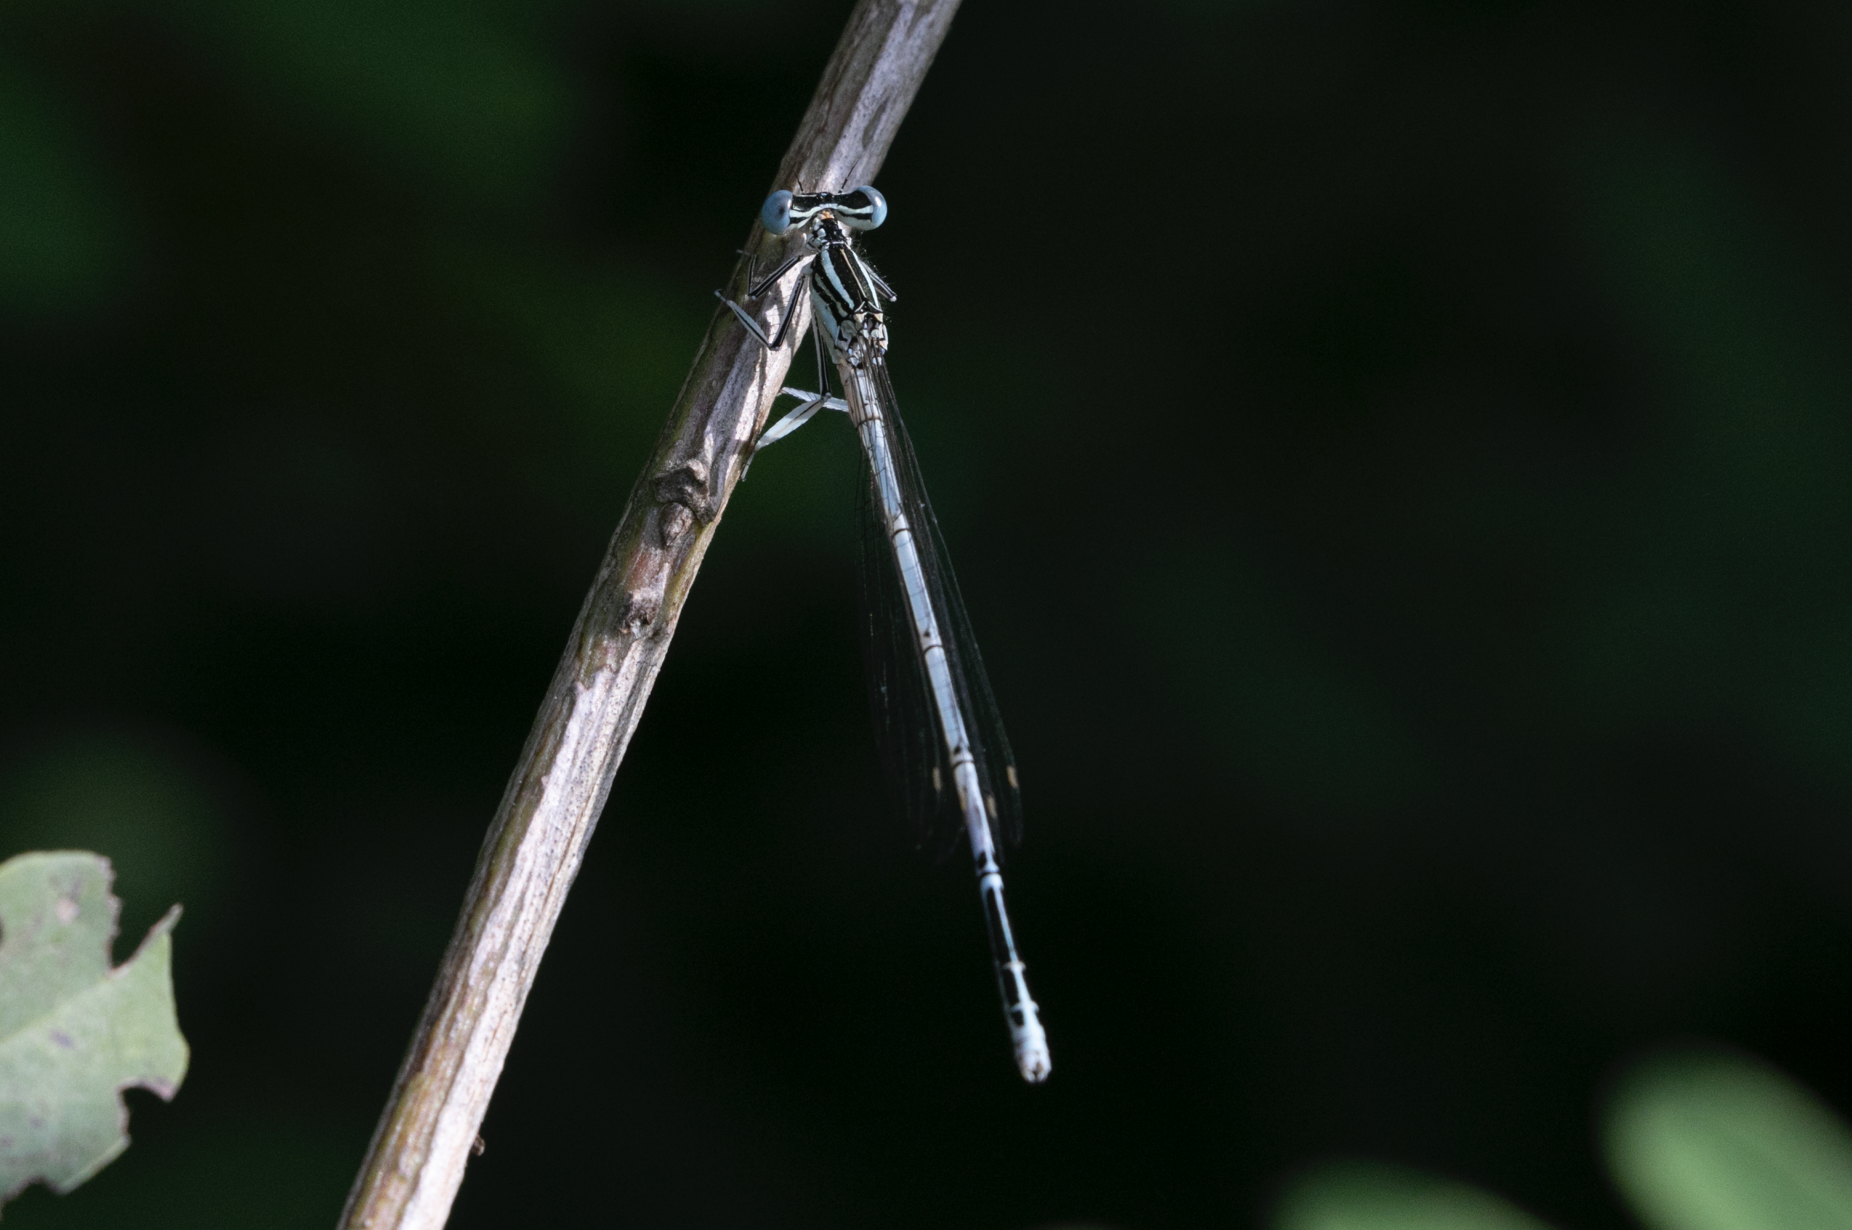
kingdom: Animalia
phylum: Arthropoda
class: Insecta
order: Odonata
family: Platycnemididae
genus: Platycnemis
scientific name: Platycnemis pennipes
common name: White-legged damselfly
